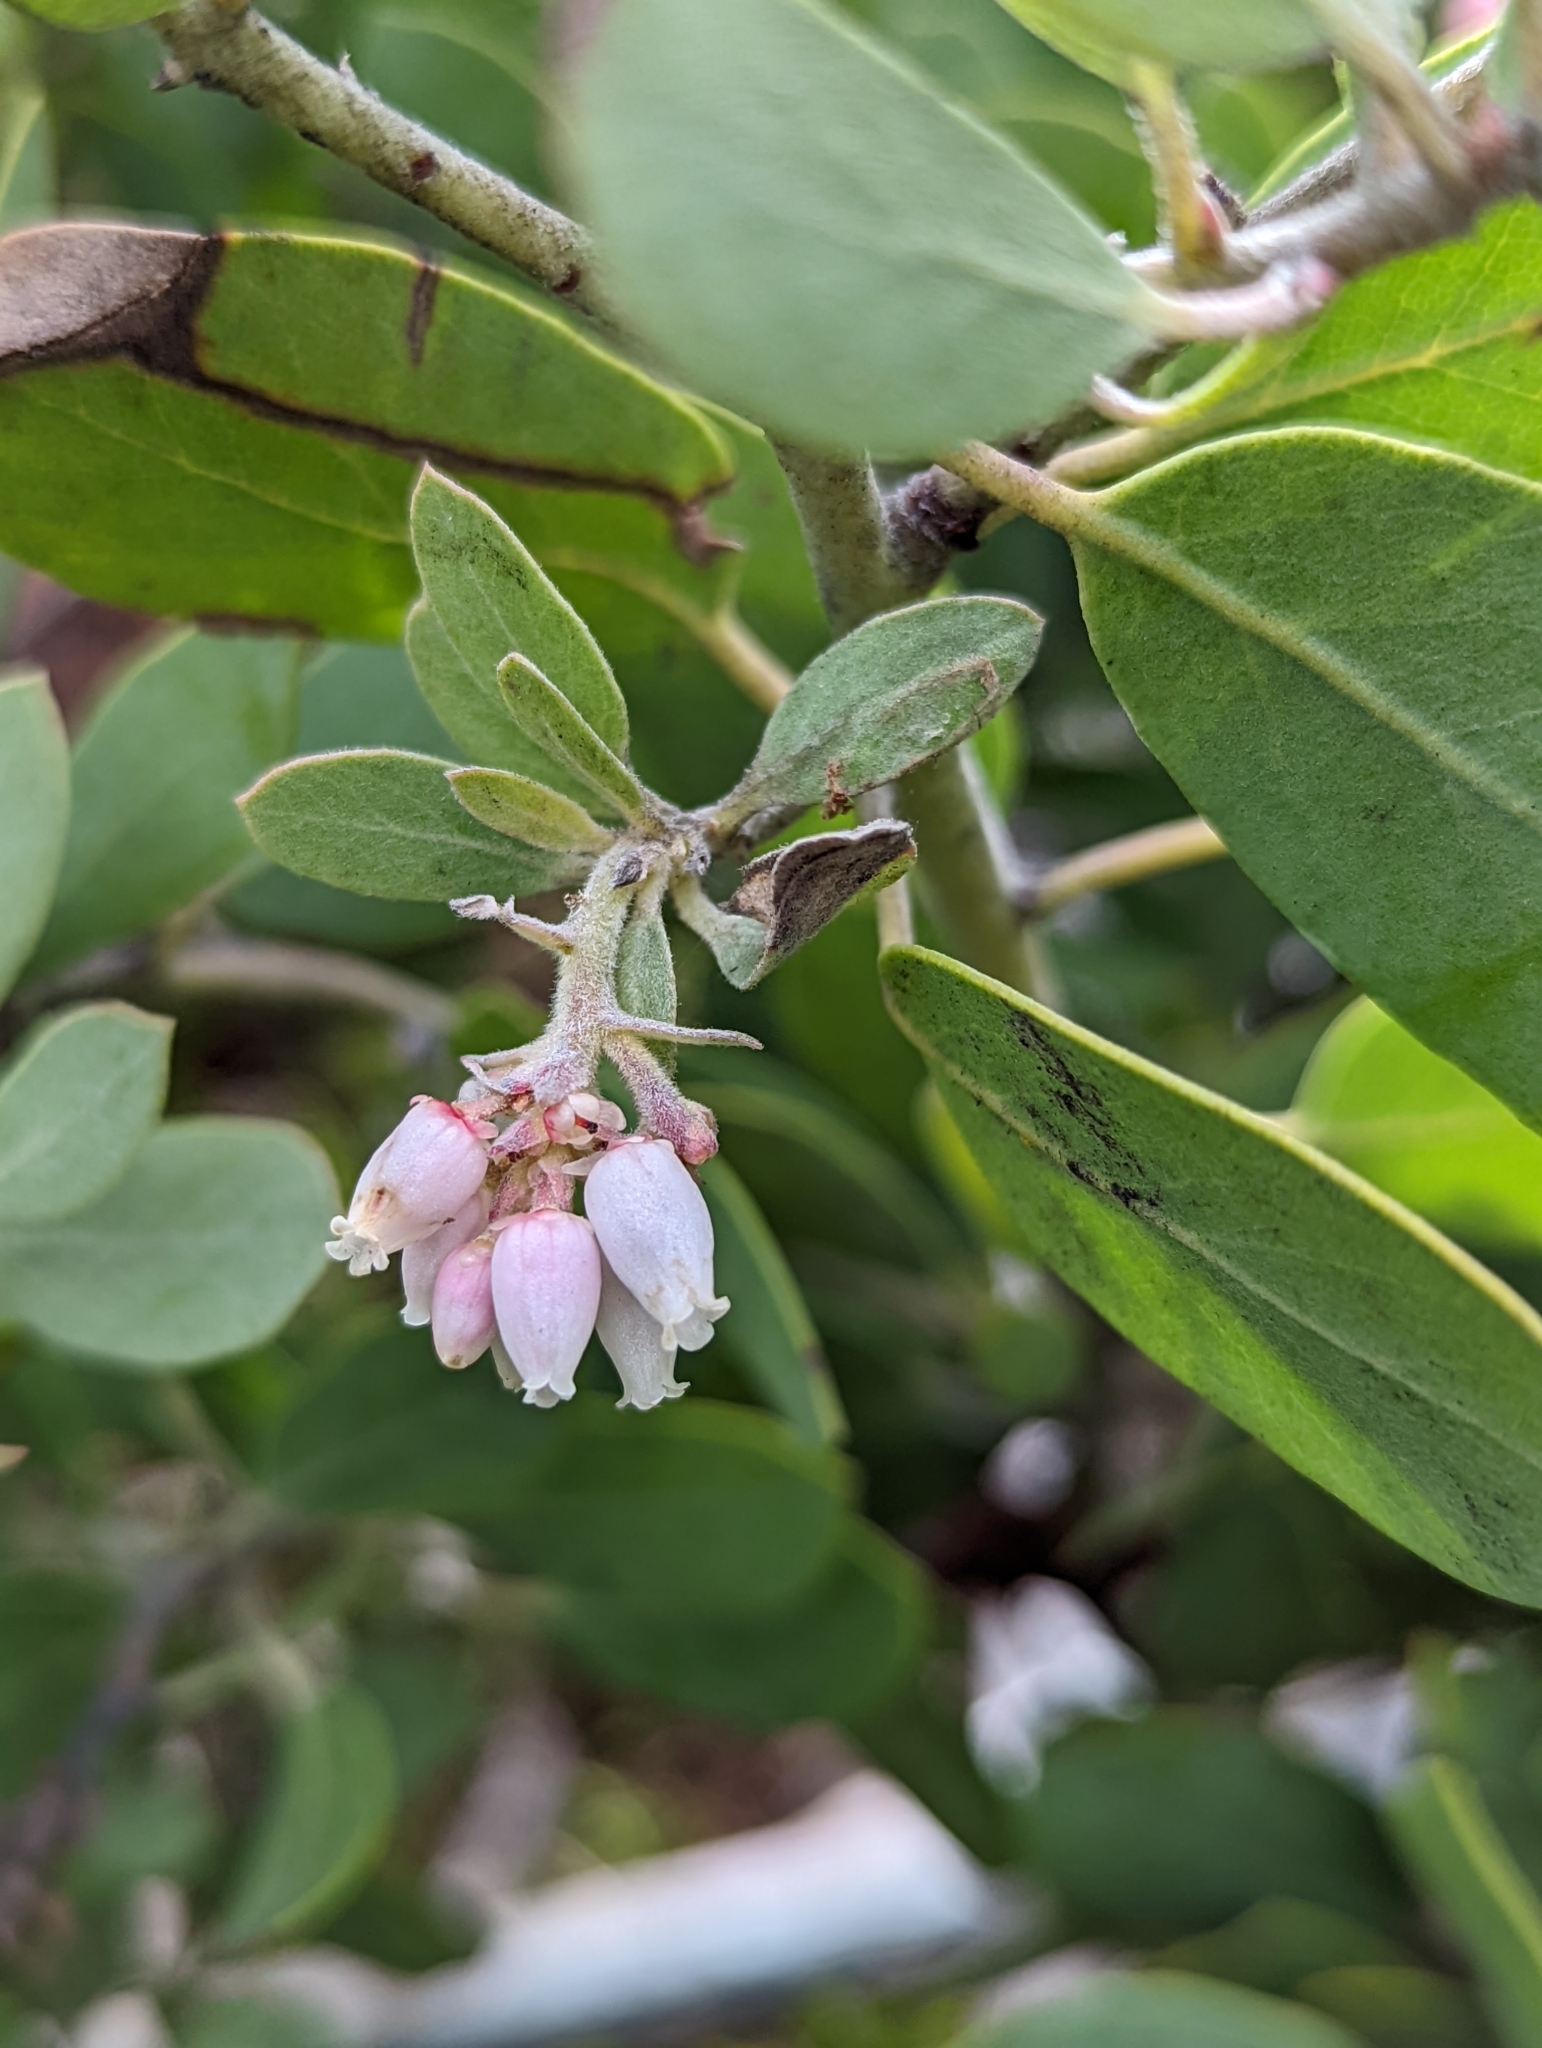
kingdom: Plantae
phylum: Tracheophyta
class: Magnoliopsida
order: Ericales
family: Ericaceae
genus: Arctostaphylos
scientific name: Arctostaphylos canescens
